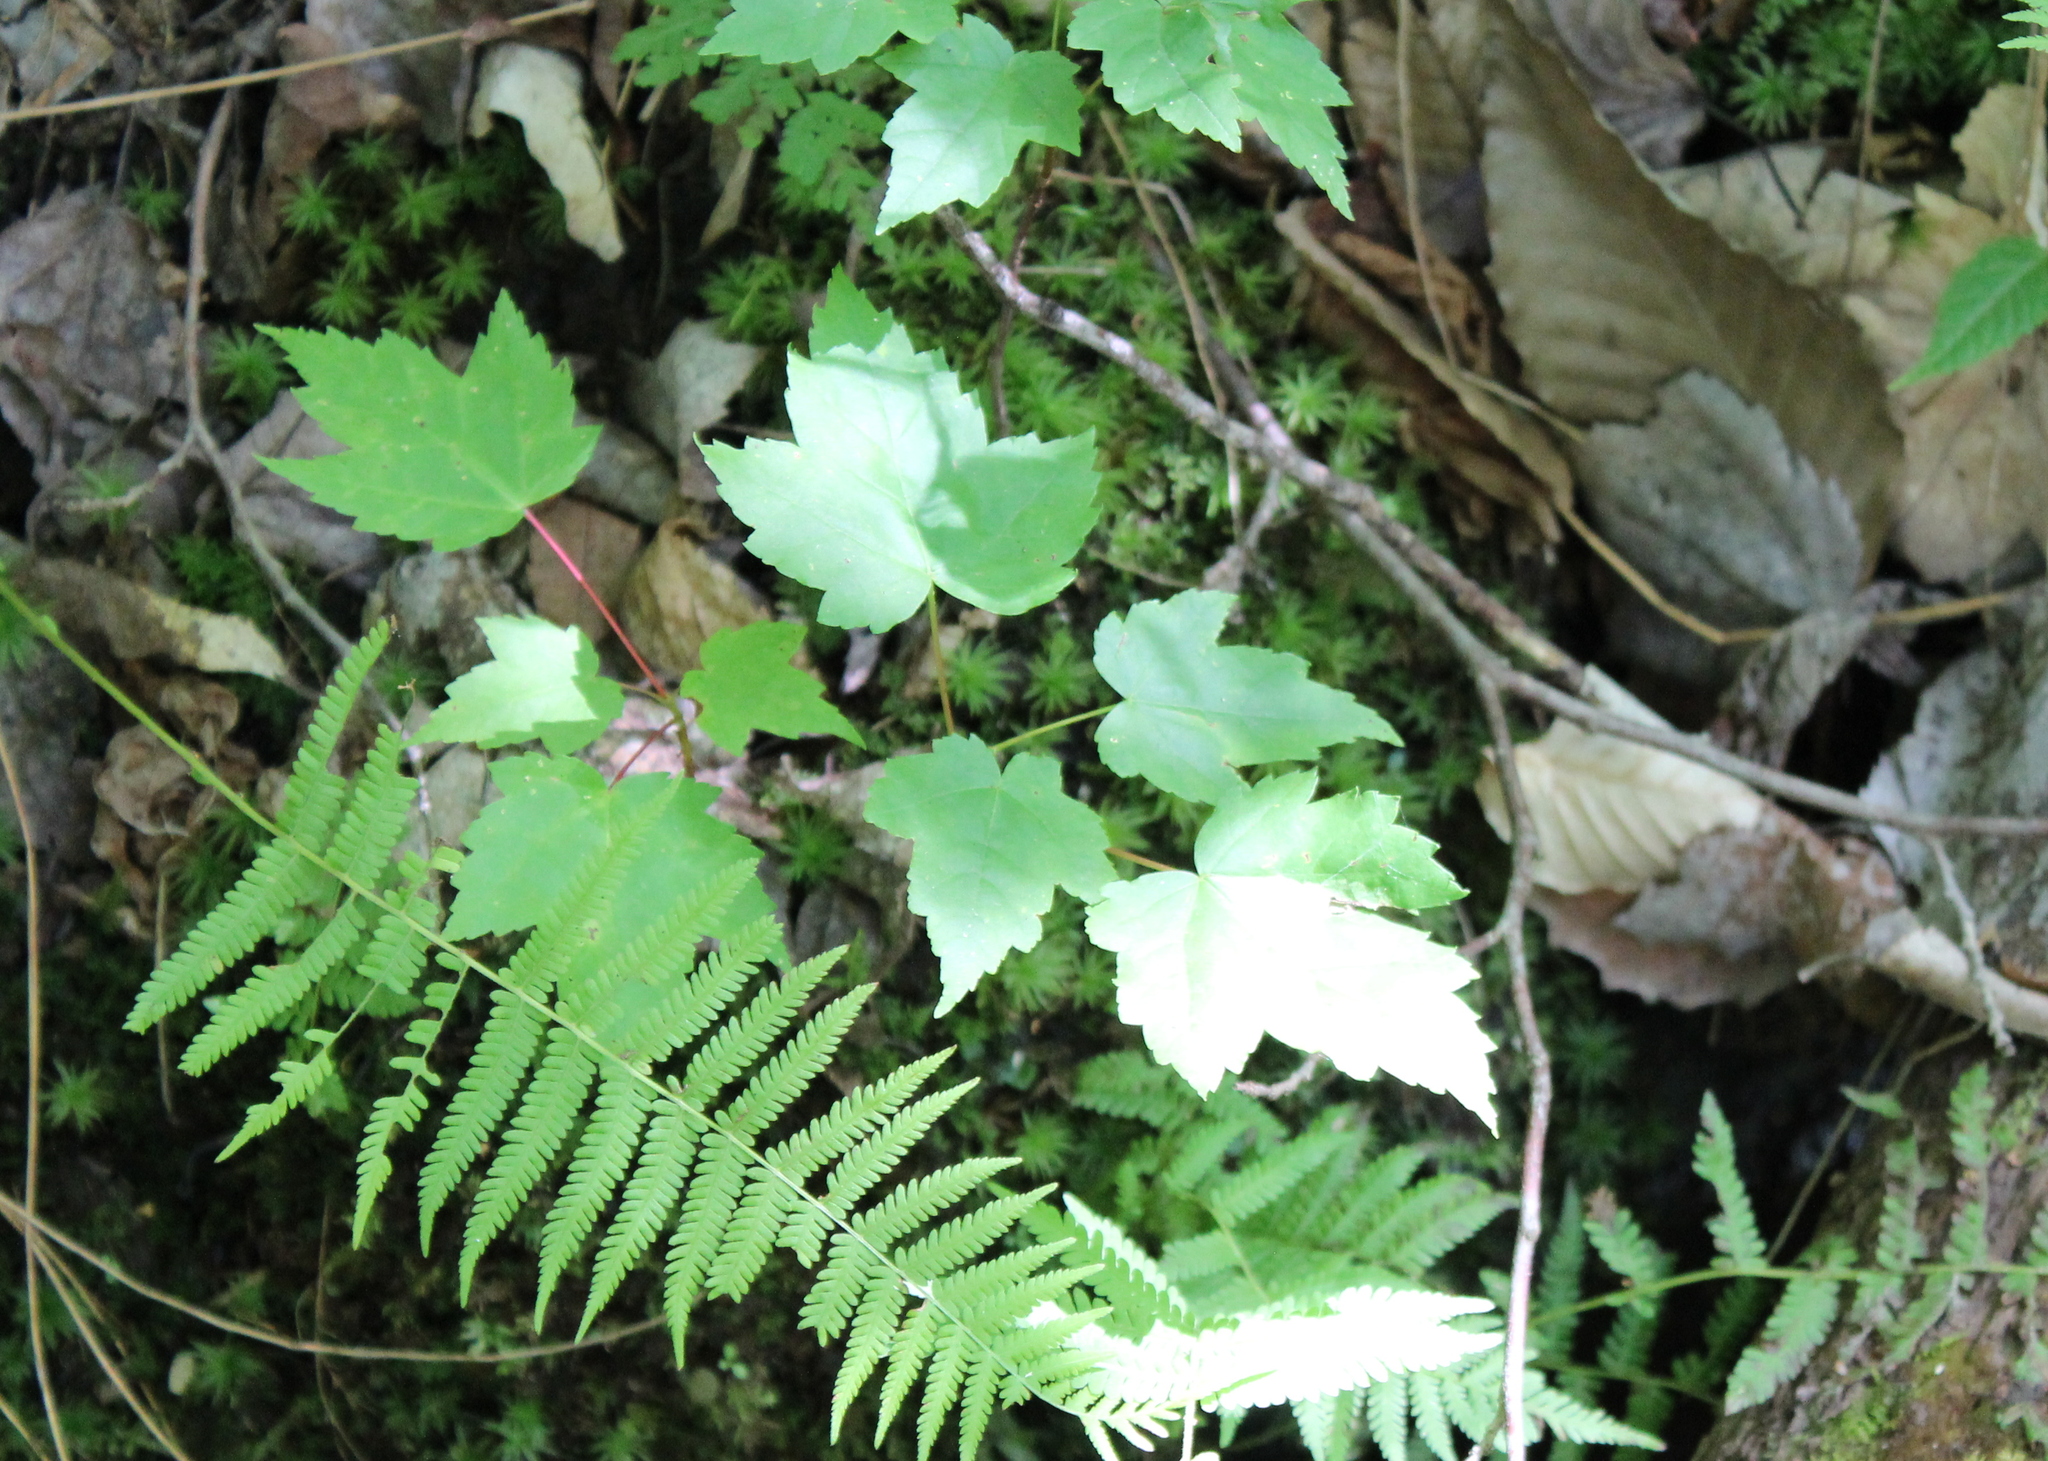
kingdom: Plantae
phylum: Tracheophyta
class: Magnoliopsida
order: Sapindales
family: Sapindaceae
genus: Acer
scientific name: Acer rubrum
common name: Red maple
